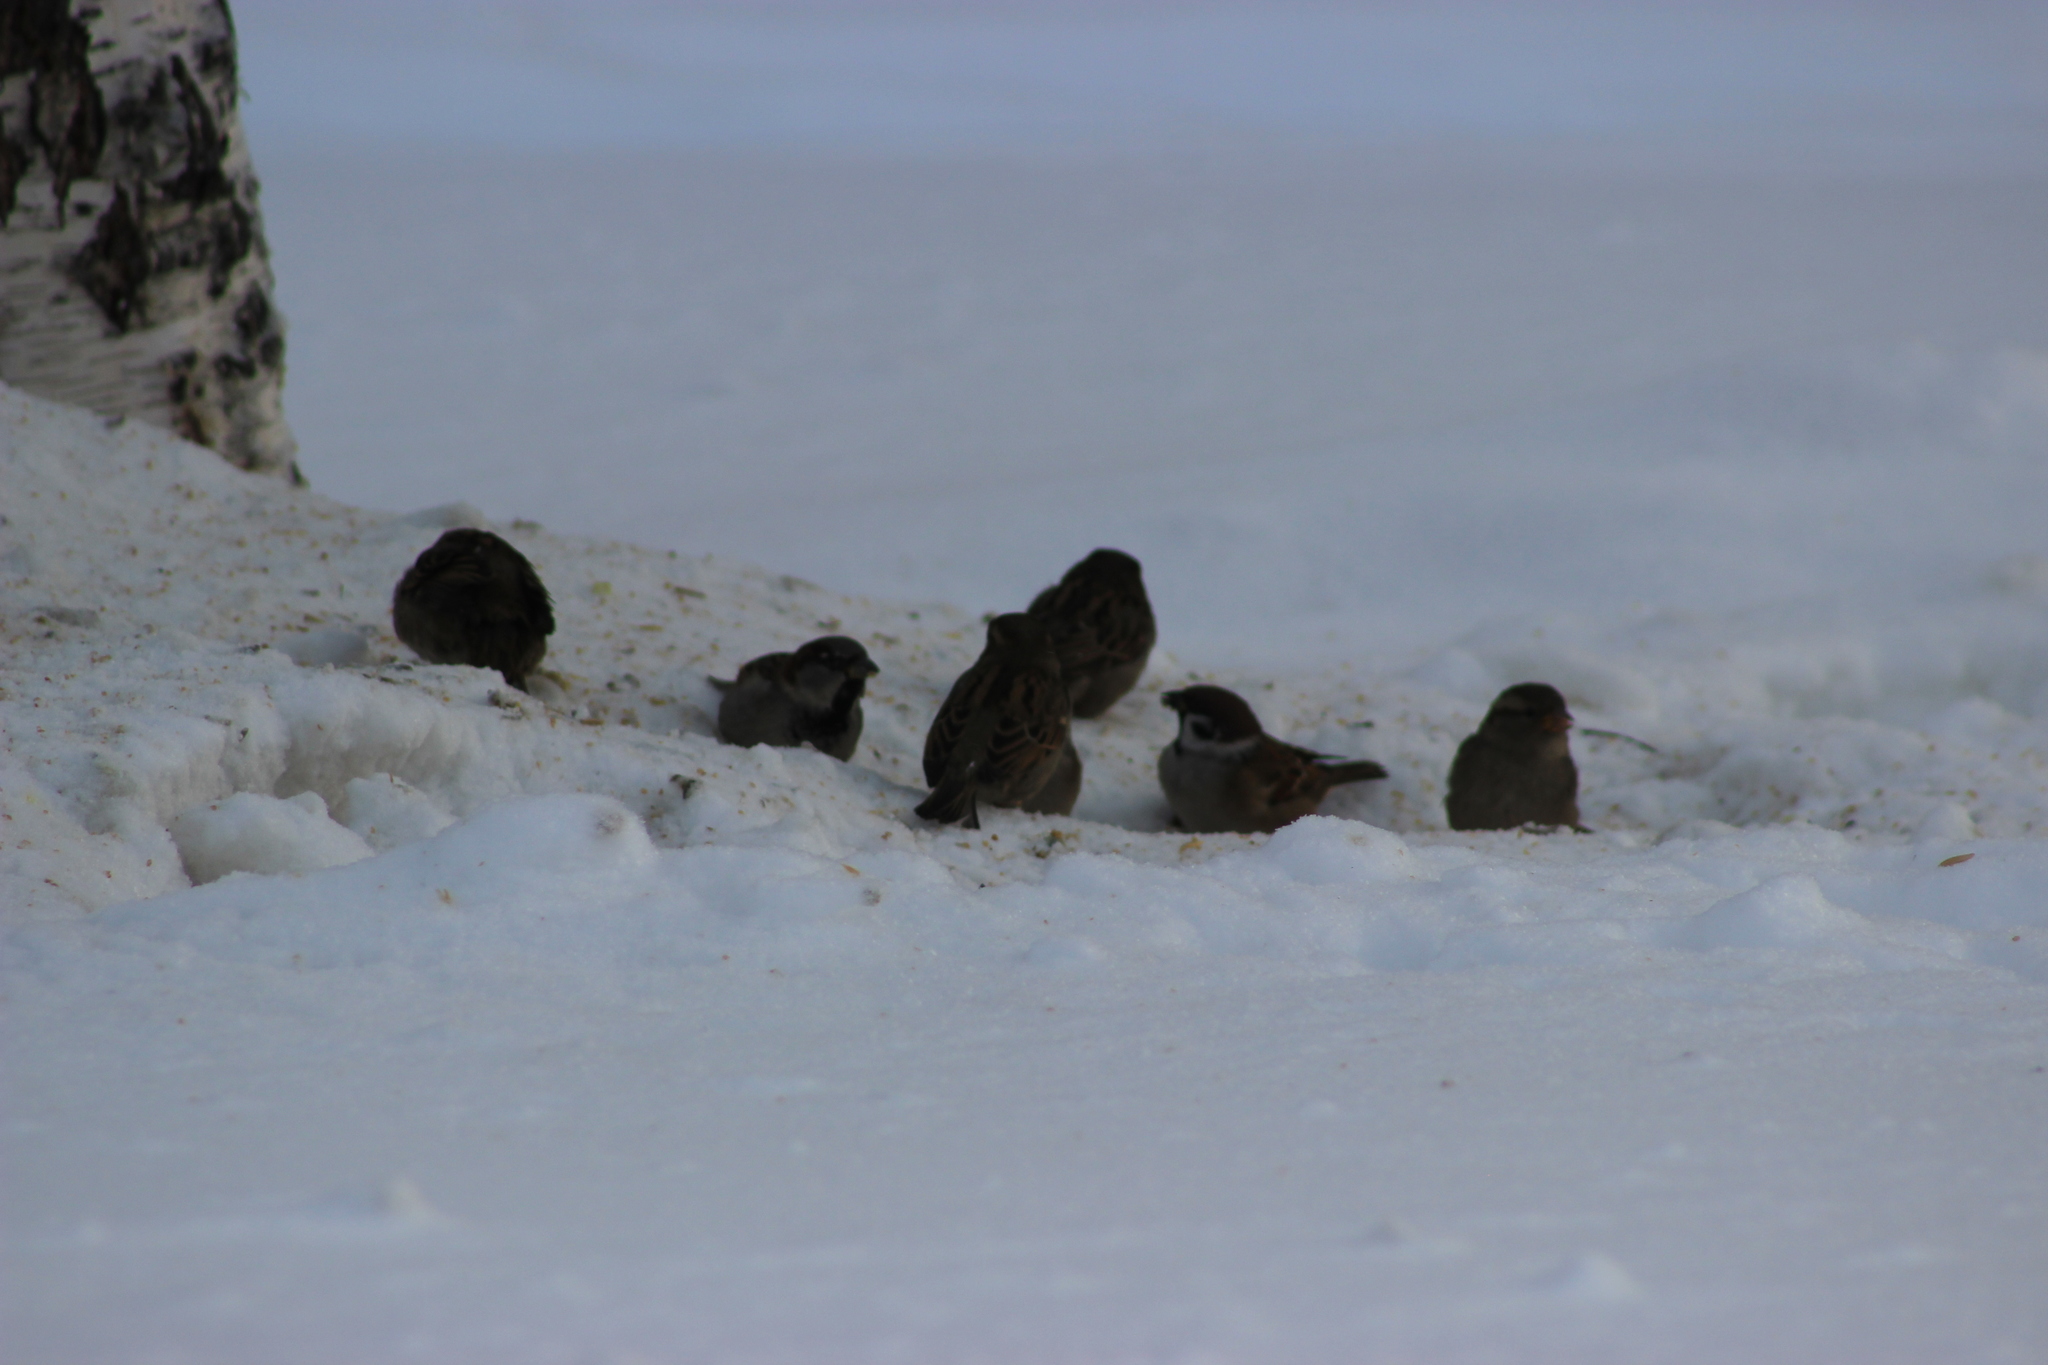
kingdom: Animalia
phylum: Chordata
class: Aves
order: Passeriformes
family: Passeridae
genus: Passer
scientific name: Passer domesticus
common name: House sparrow
